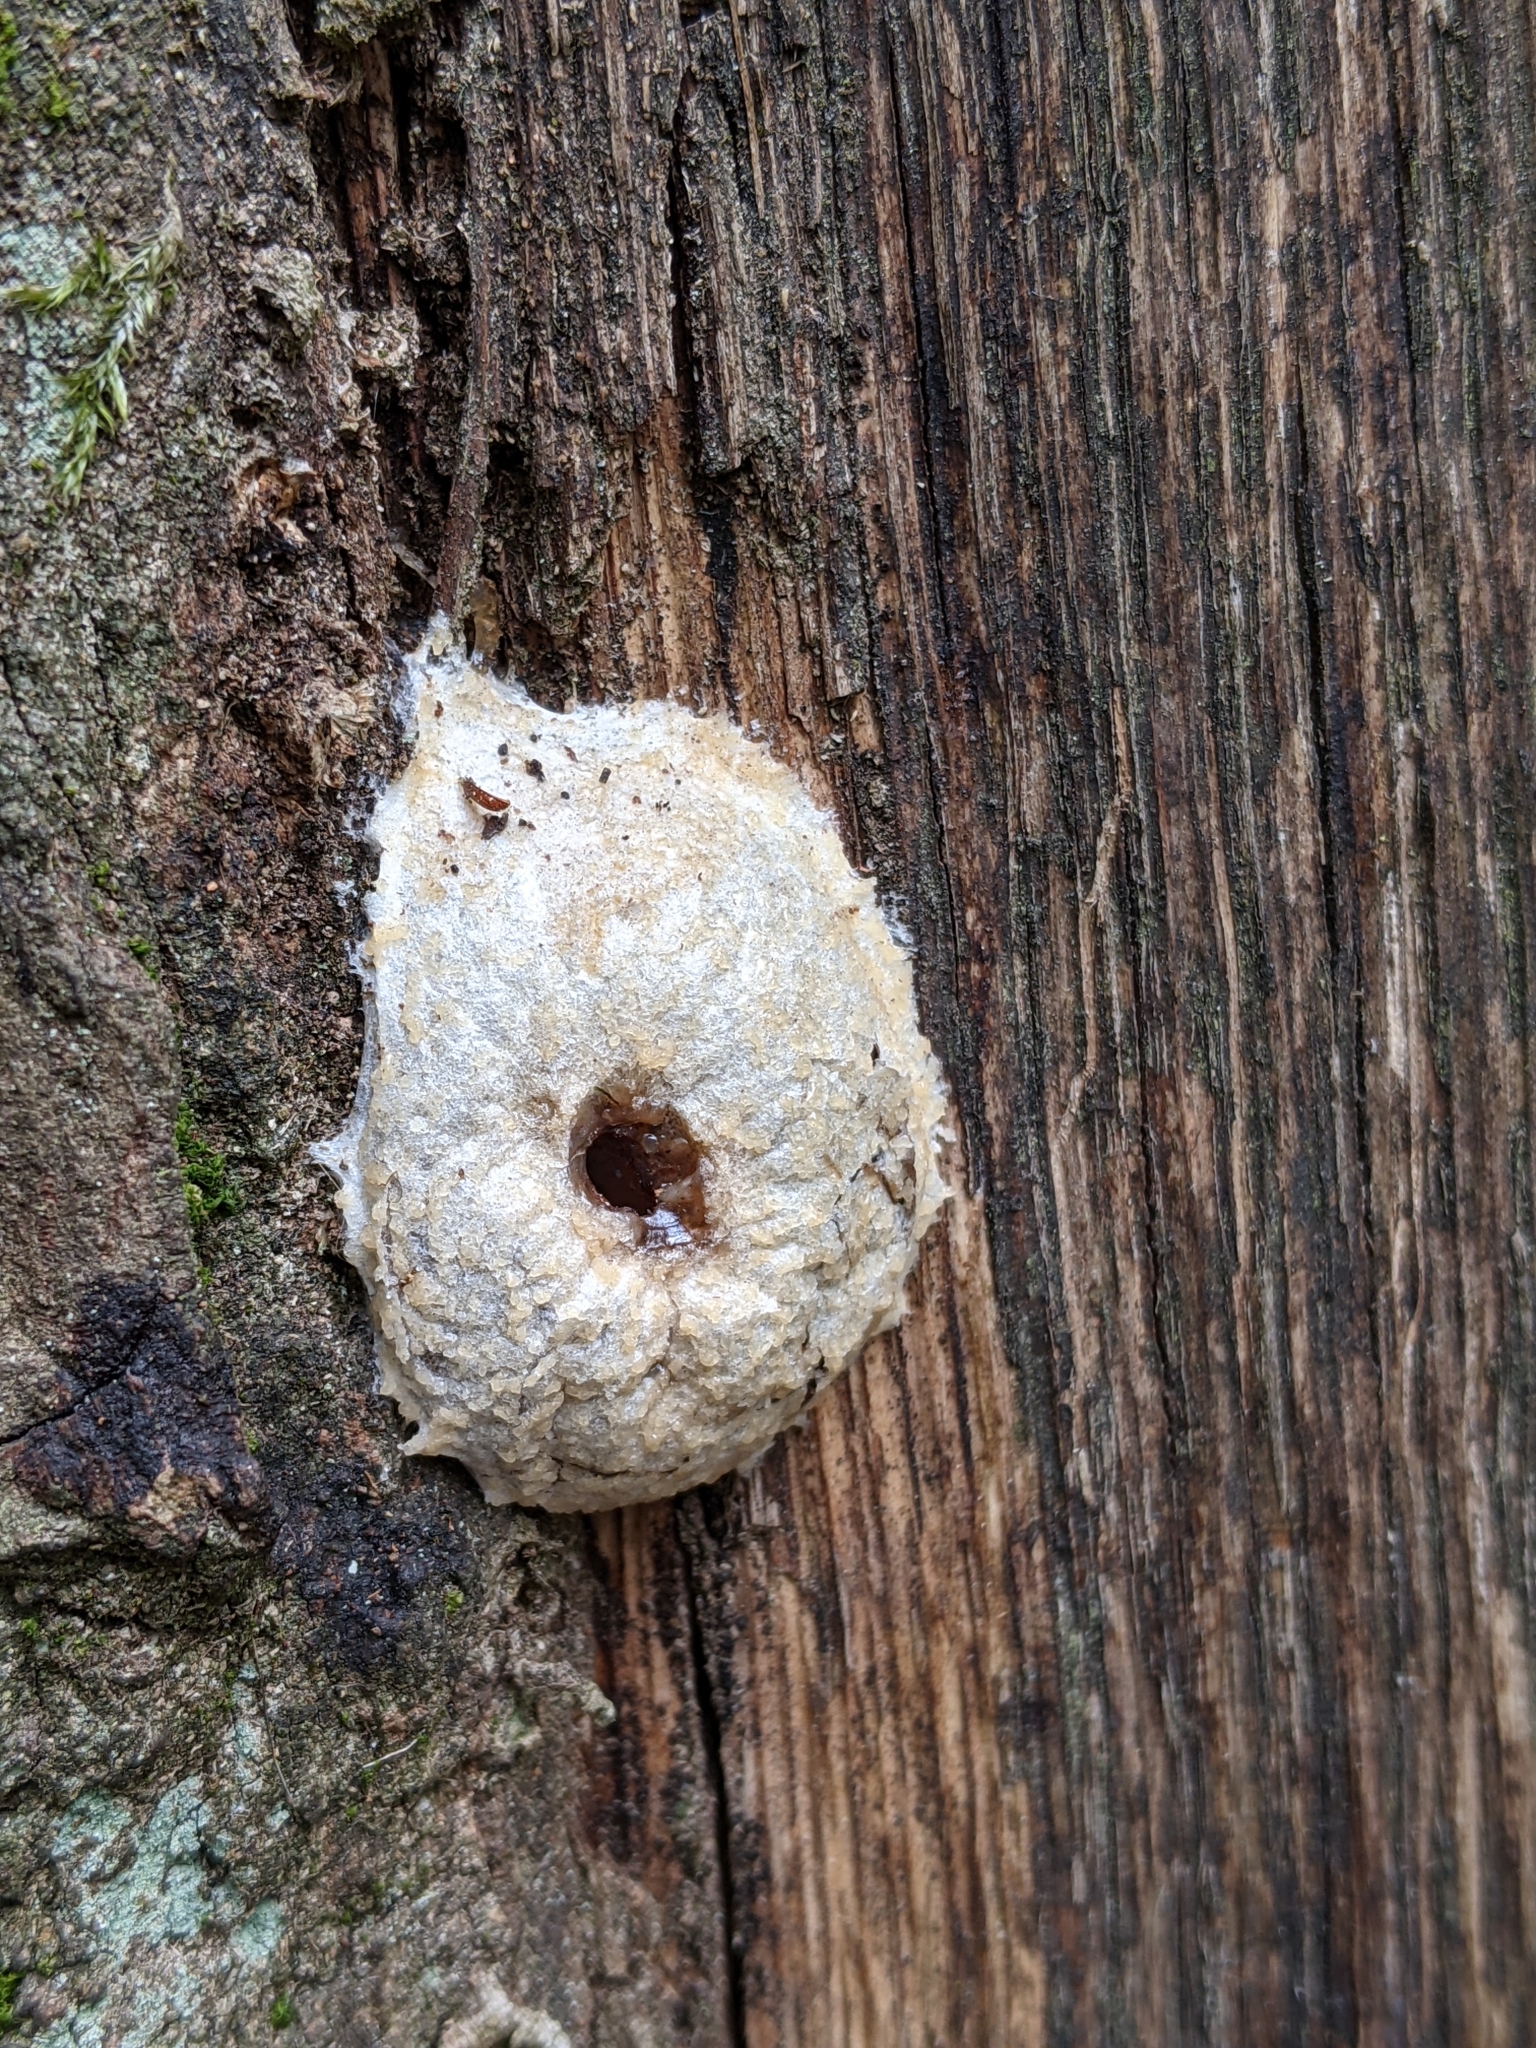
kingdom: Protozoa
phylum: Mycetozoa
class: Myxomycetes
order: Cribrariales
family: Tubiferaceae
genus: Reticularia
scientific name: Reticularia lycoperdon
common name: False puffball
